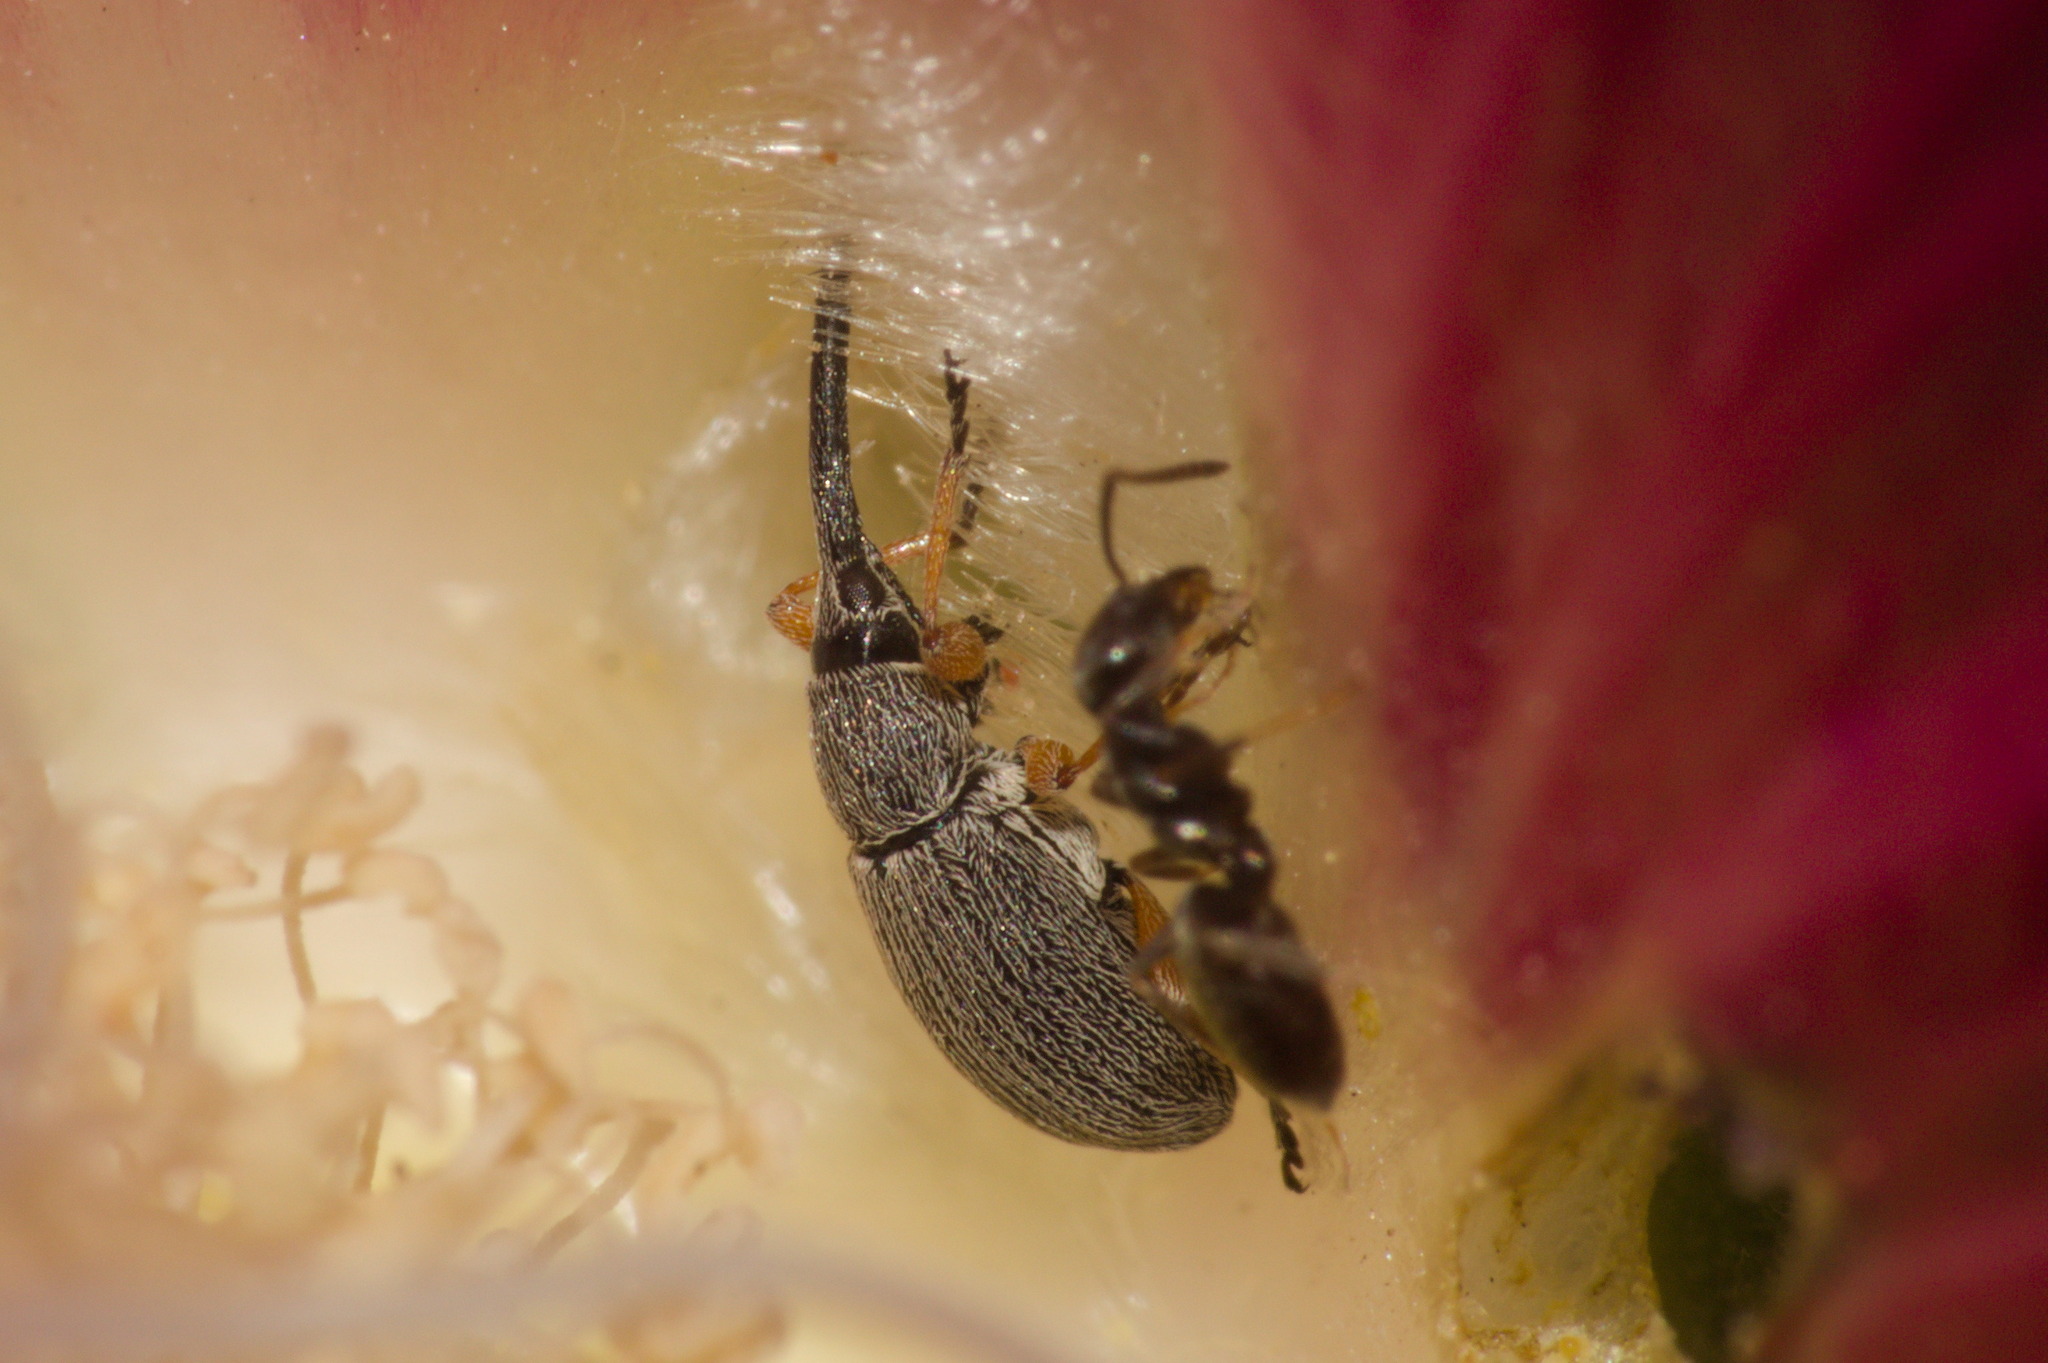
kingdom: Animalia
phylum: Arthropoda
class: Insecta
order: Coleoptera
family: Brentidae
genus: Rhopalapion
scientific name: Rhopalapion longirostre
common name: Hollyhock weevil
